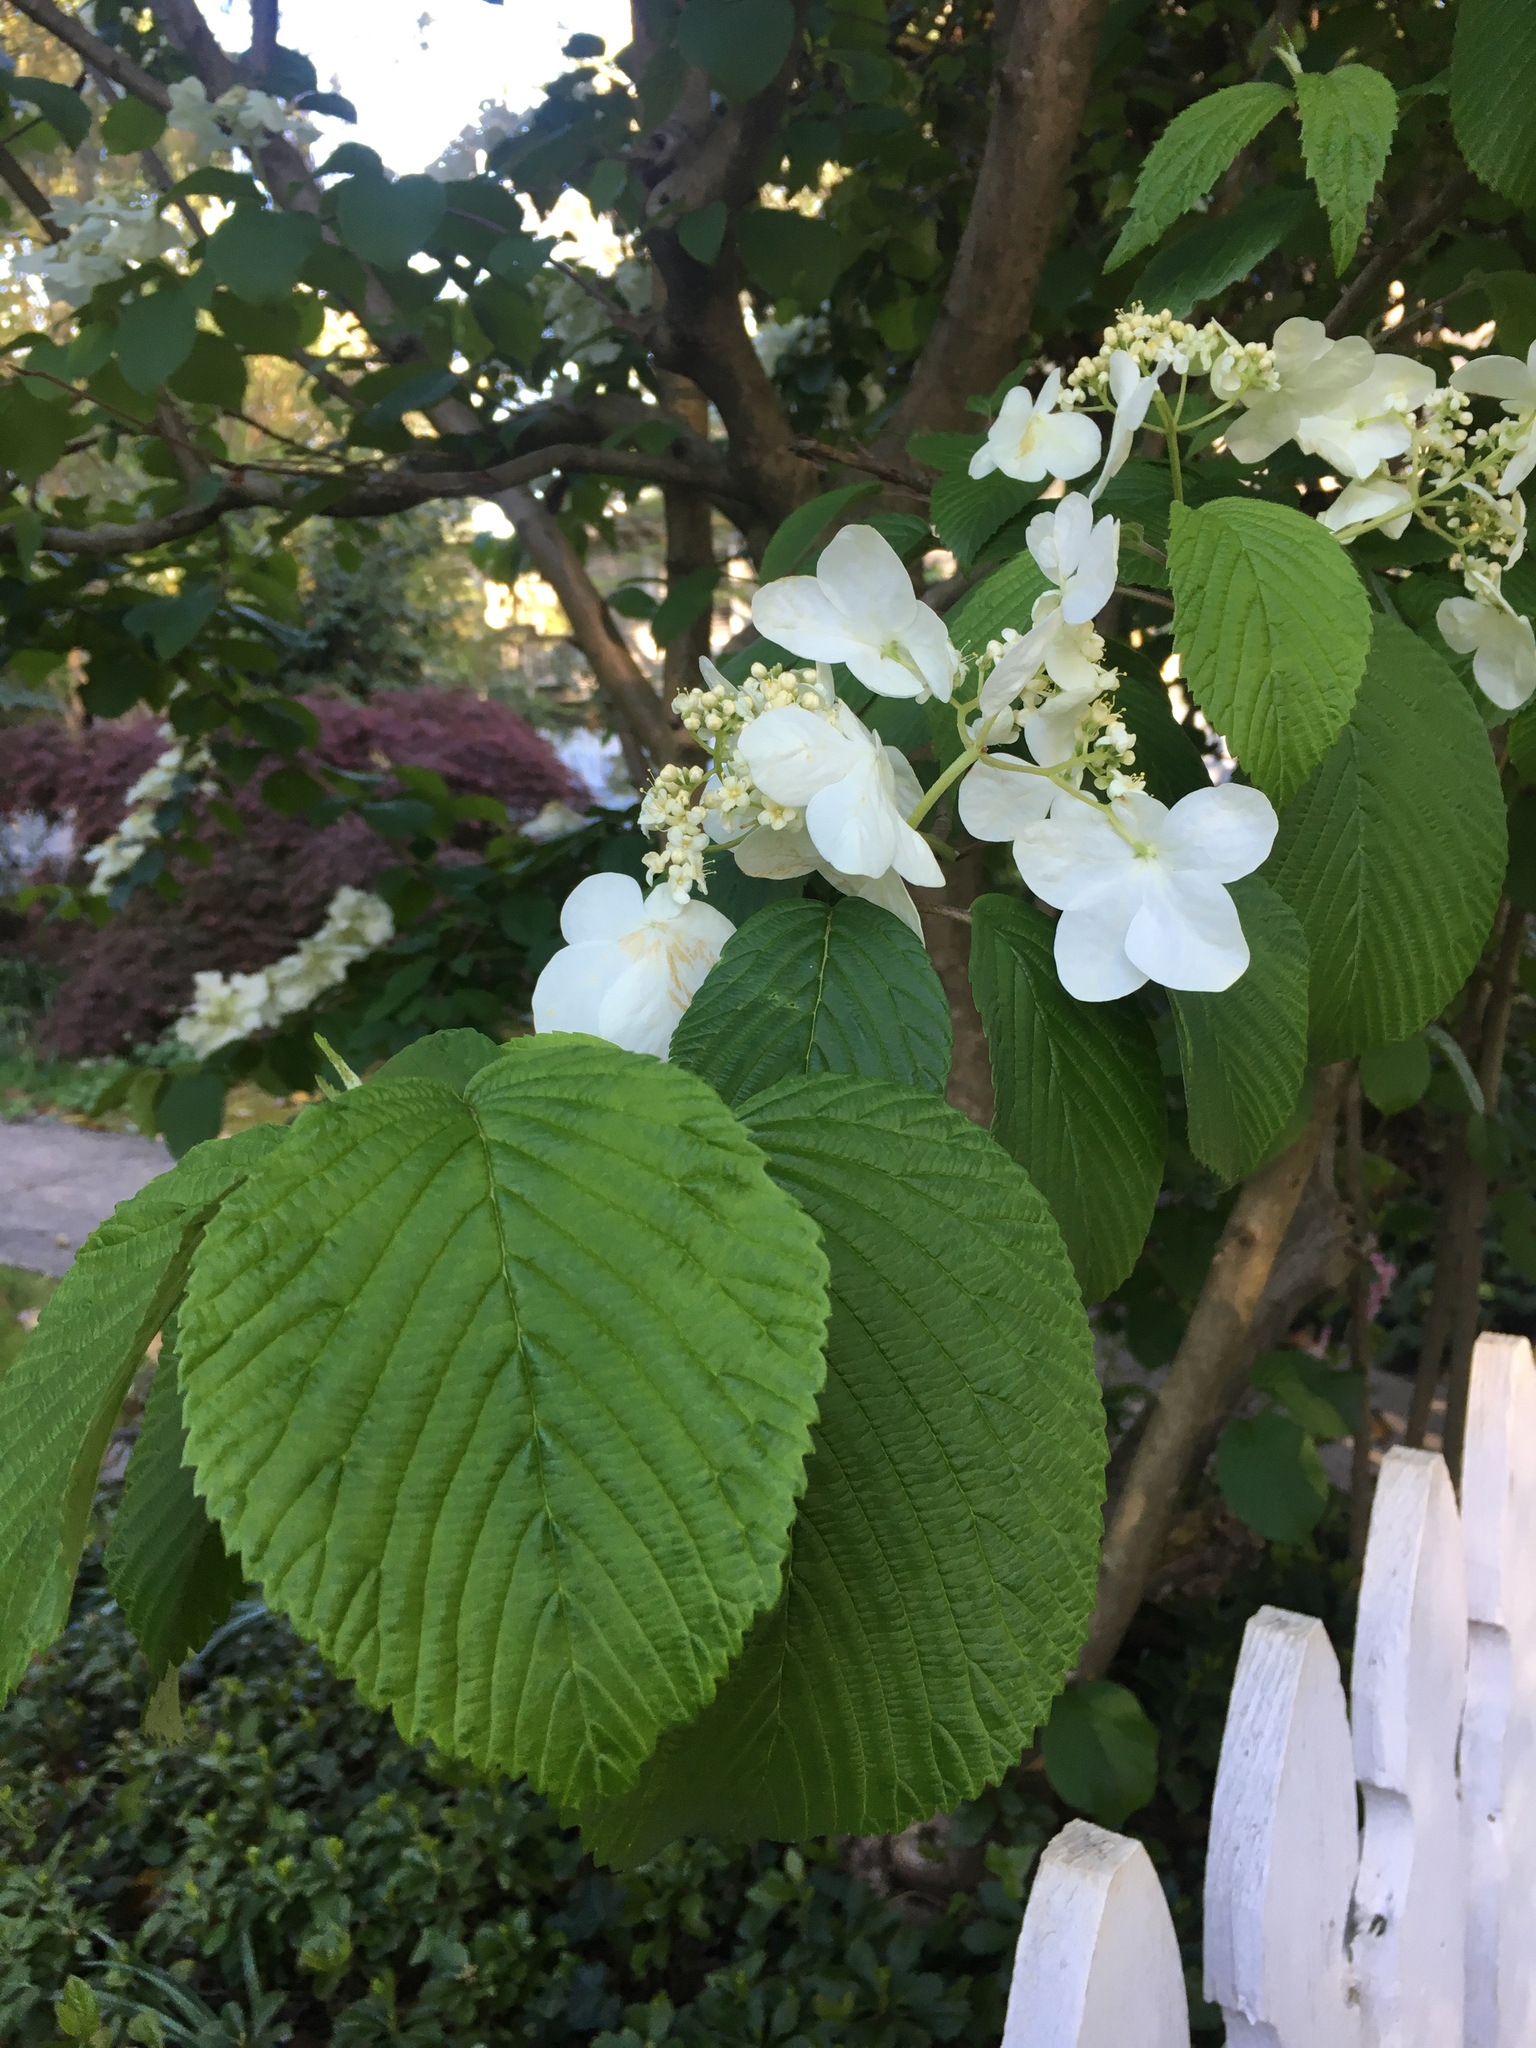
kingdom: Plantae
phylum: Tracheophyta
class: Magnoliopsida
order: Dipsacales
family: Viburnaceae
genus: Viburnum
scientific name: Viburnum plicatum
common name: Japanese snowball
